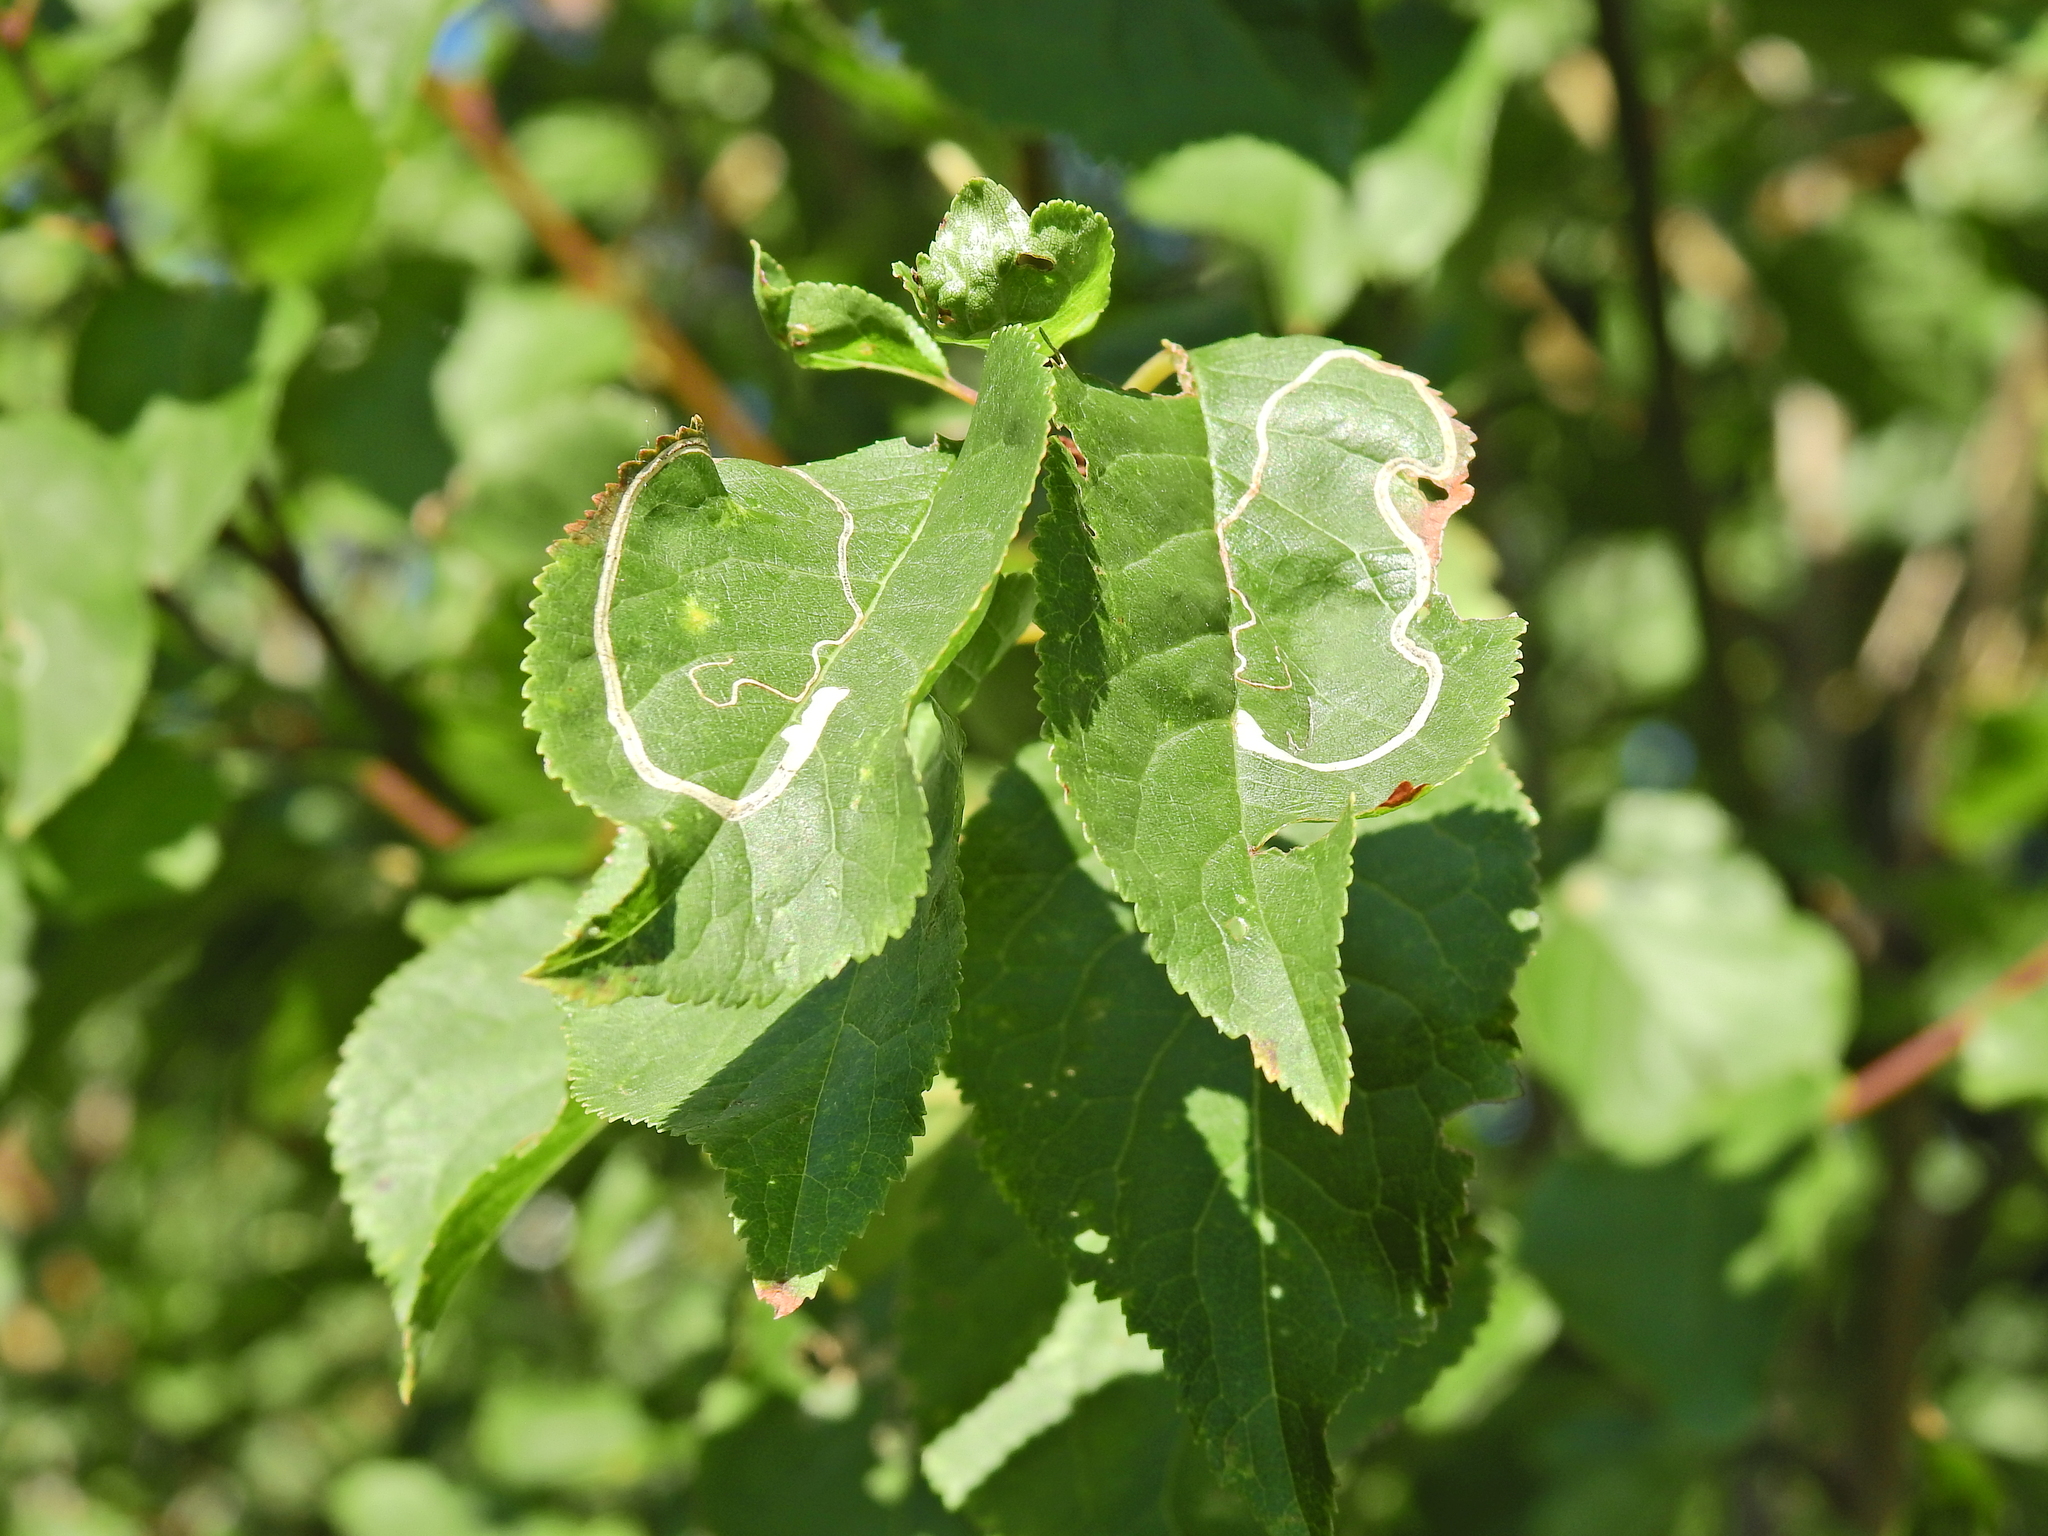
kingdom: Animalia
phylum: Arthropoda
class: Insecta
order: Lepidoptera
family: Lyonetiidae
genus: Lyonetia
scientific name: Lyonetia clerkella
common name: Apple leaf miner
